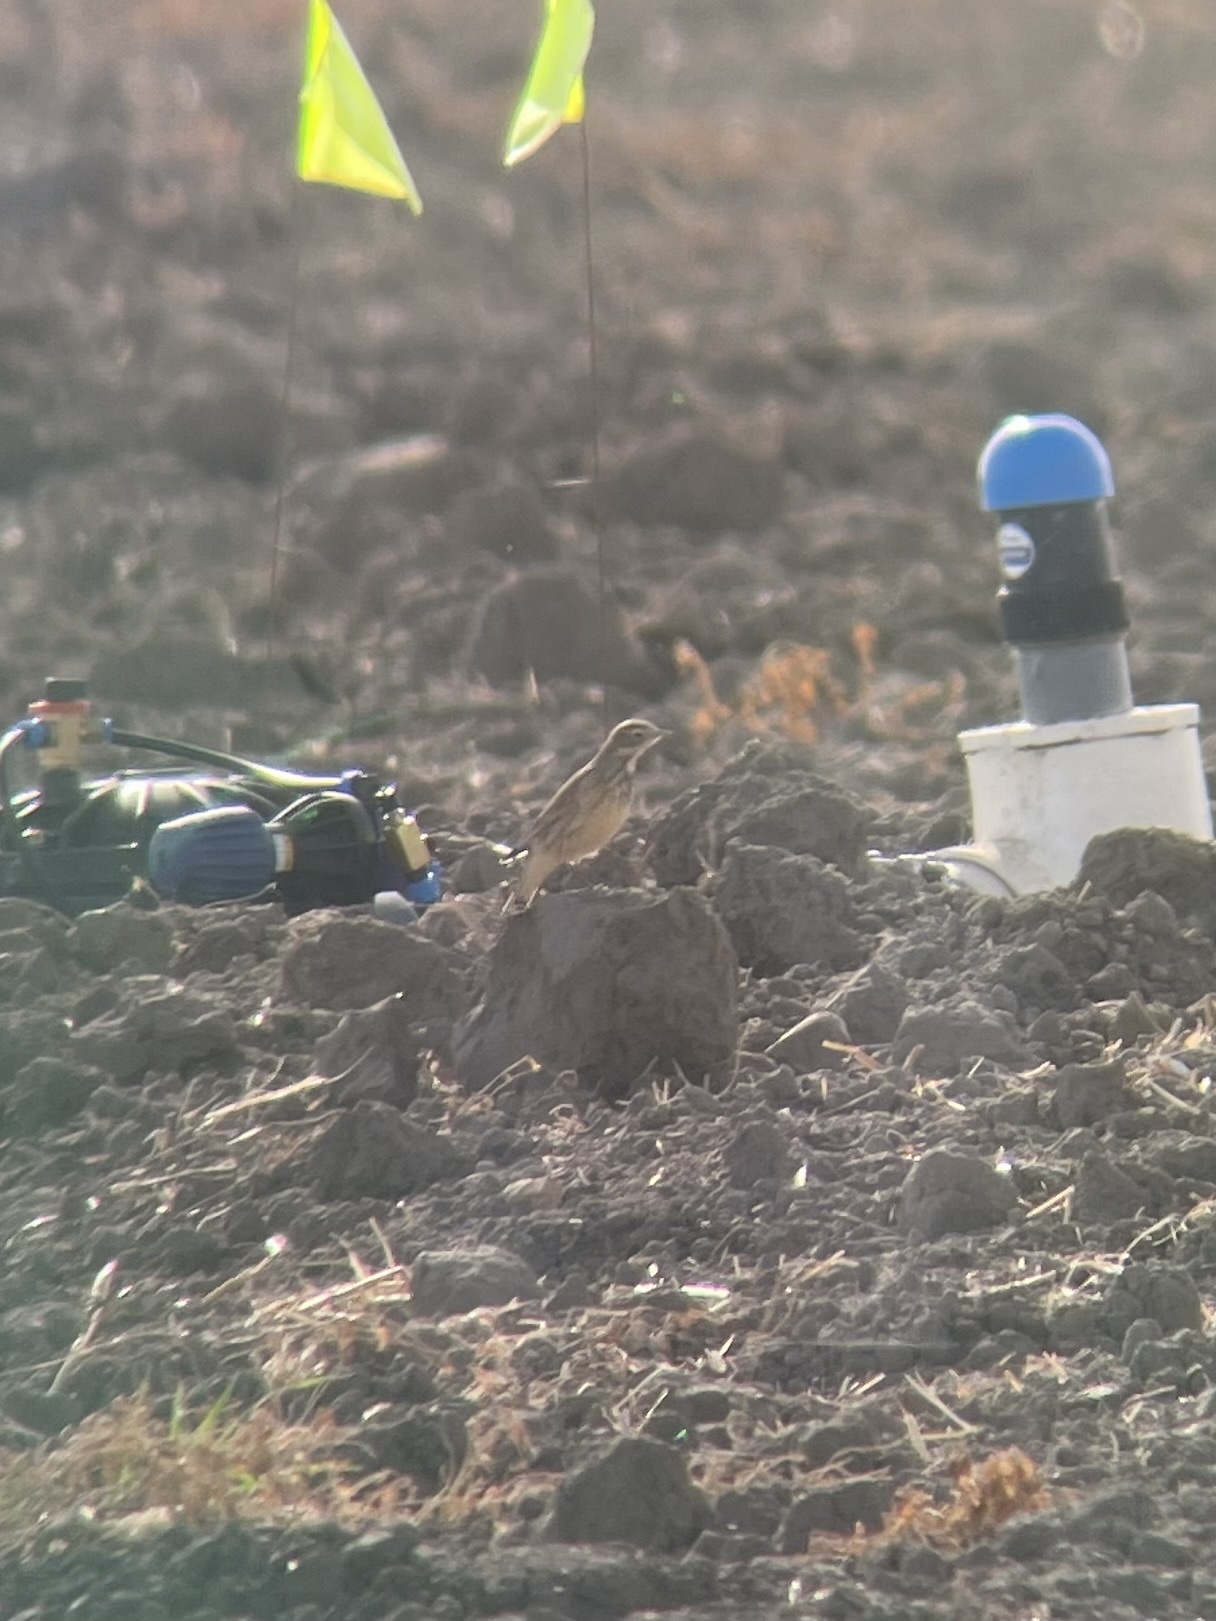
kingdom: Animalia
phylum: Chordata
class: Aves
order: Passeriformes
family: Motacillidae
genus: Anthus
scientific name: Anthus rubescens
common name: Buff-bellied pipit
